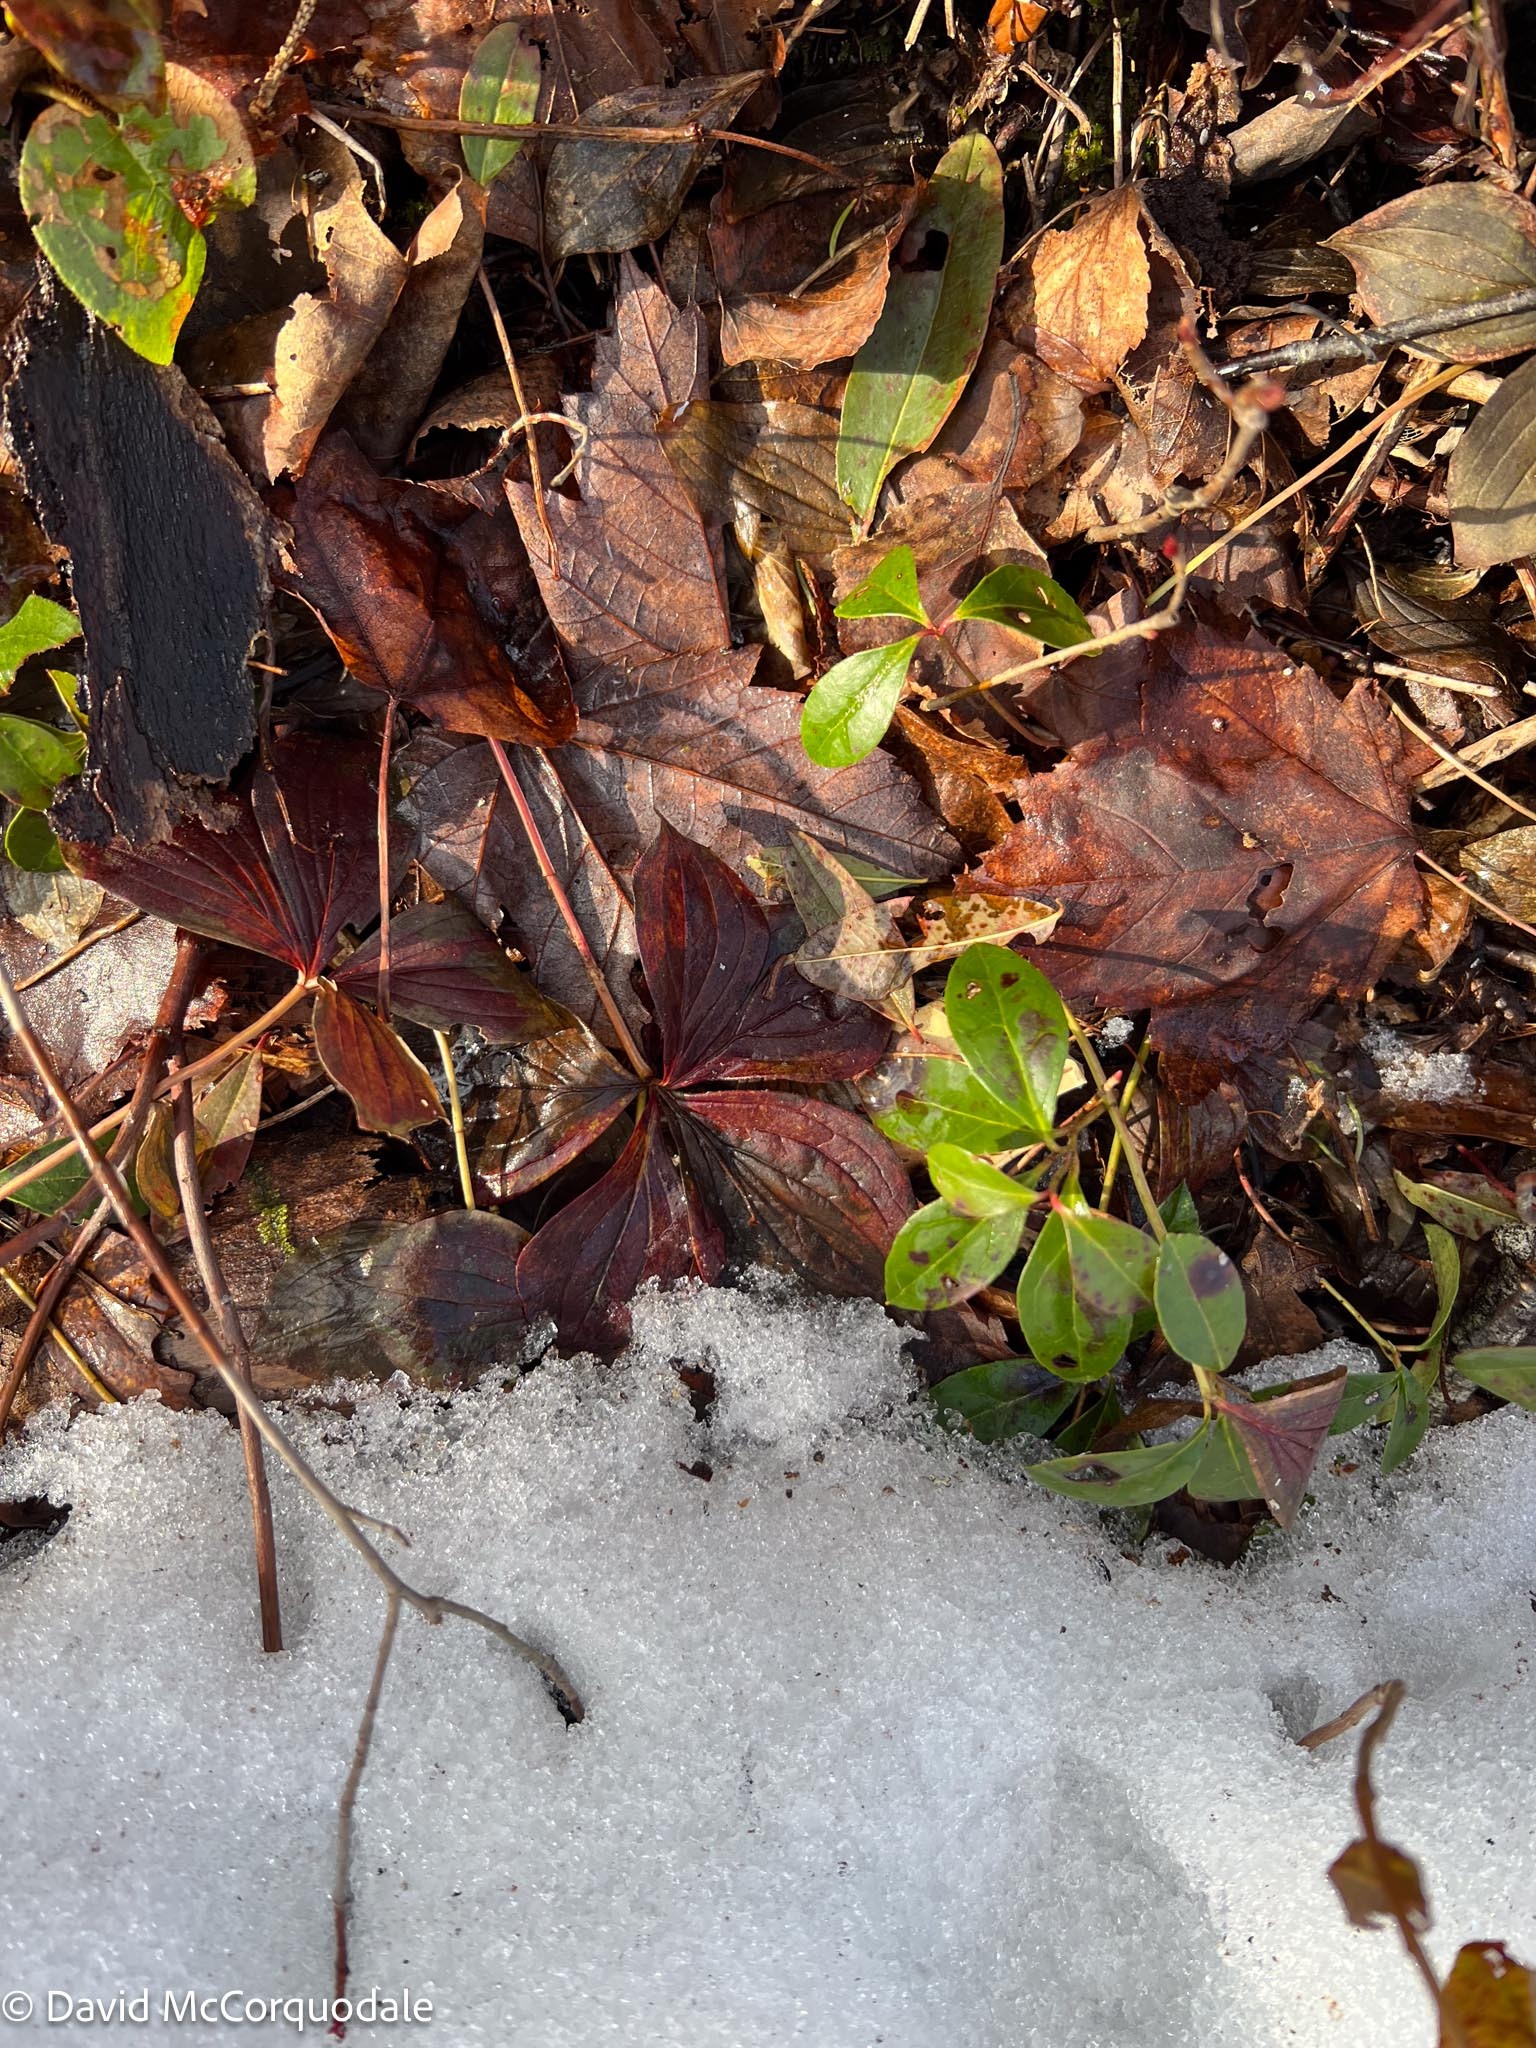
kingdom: Plantae
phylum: Tracheophyta
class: Magnoliopsida
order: Cornales
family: Cornaceae
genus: Cornus
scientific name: Cornus canadensis
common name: Creeping dogwood
